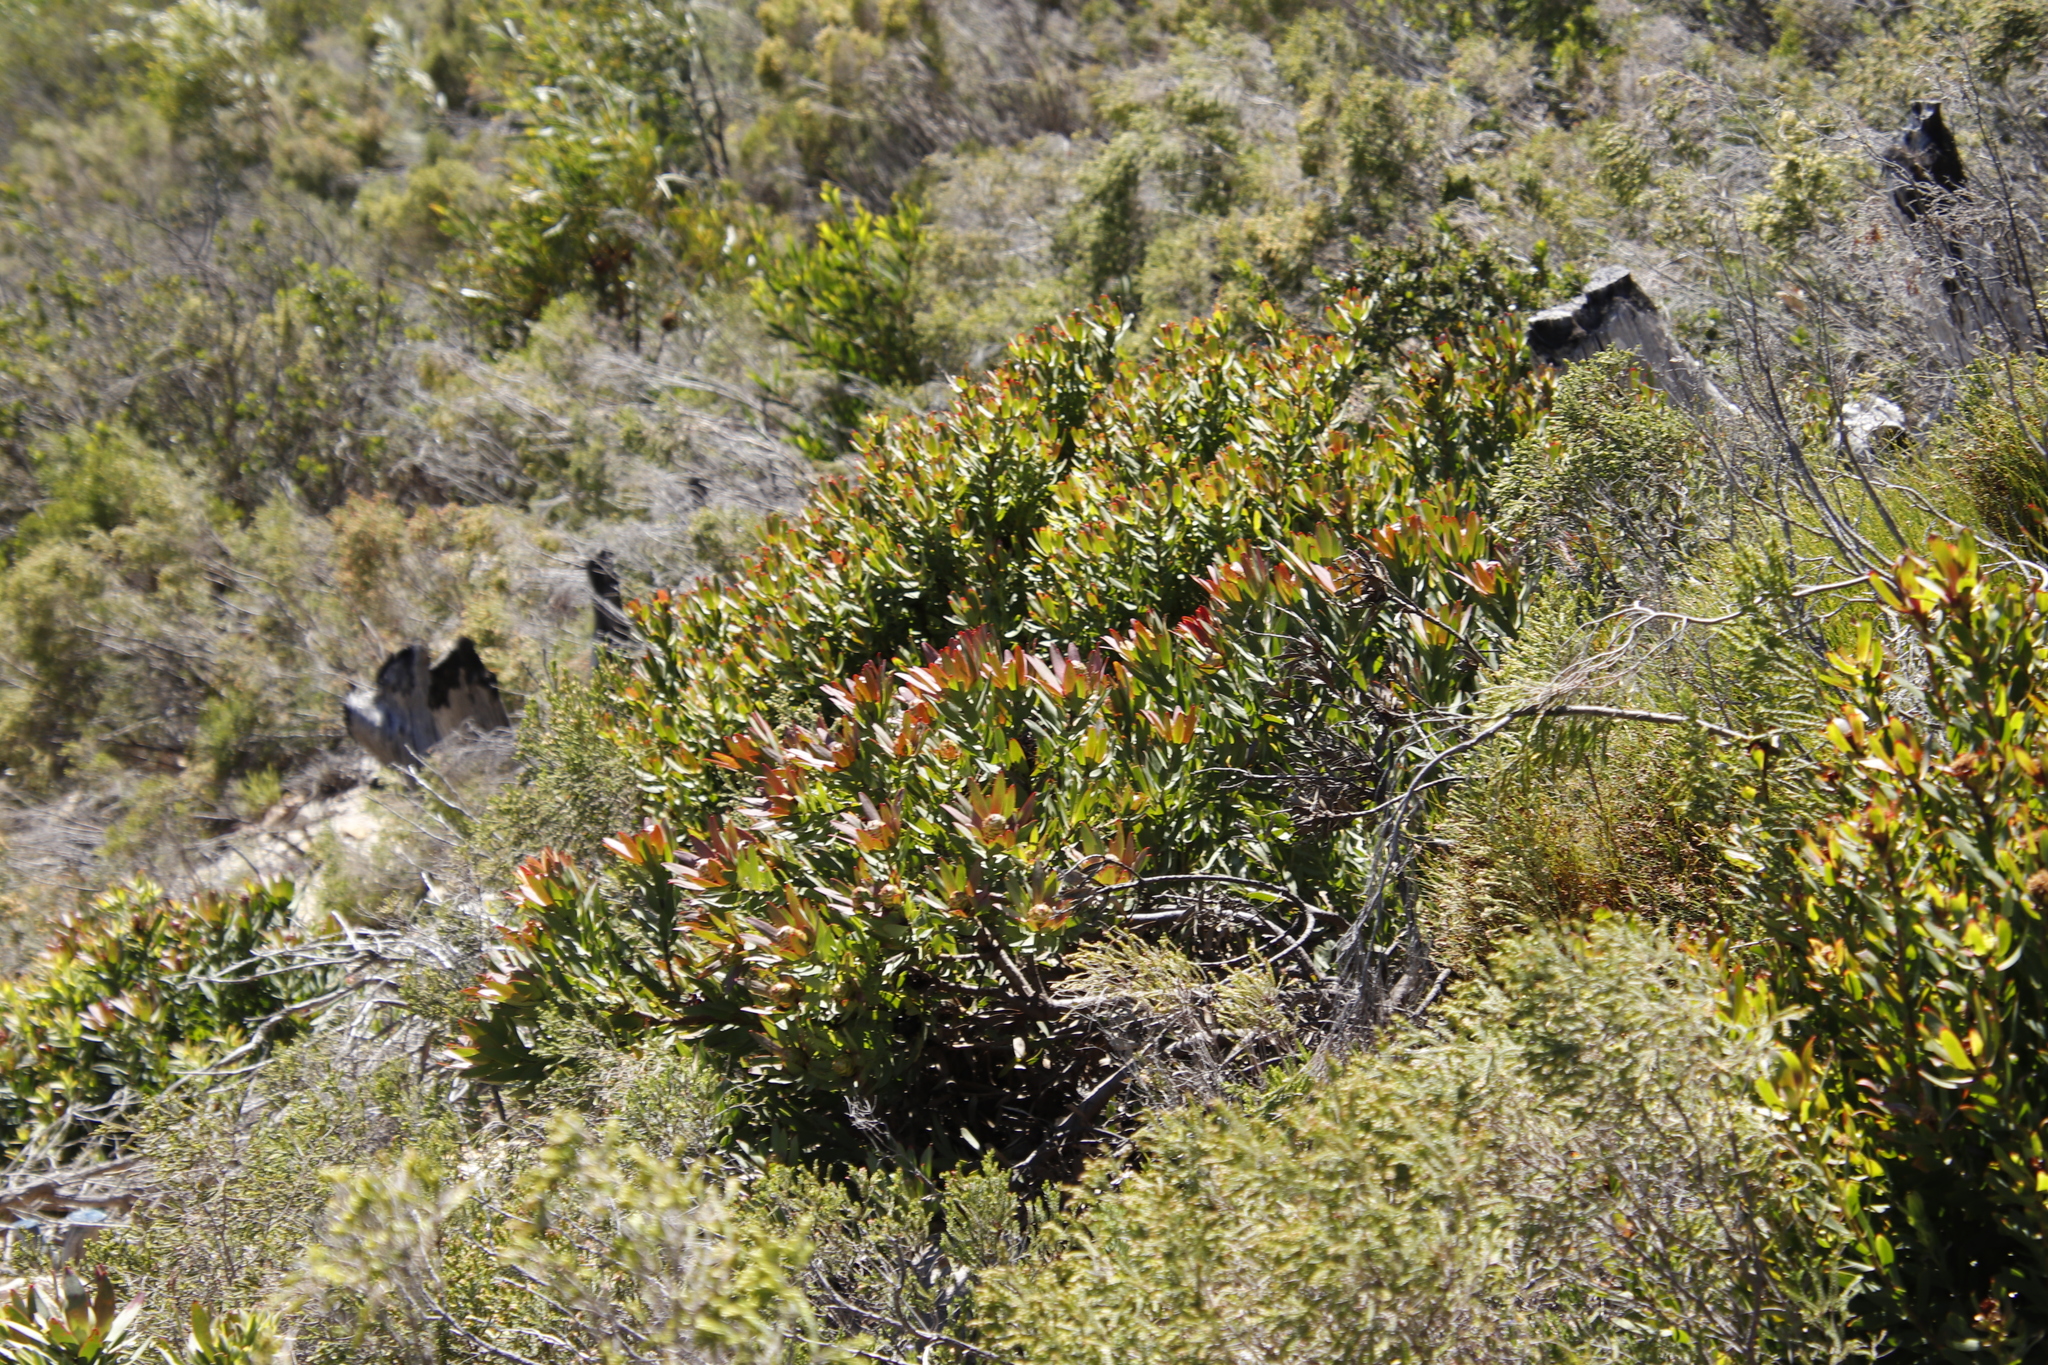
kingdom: Plantae
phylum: Tracheophyta
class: Magnoliopsida
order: Proteales
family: Proteaceae
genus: Leucadendron
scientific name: Leucadendron sessile
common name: Western sunbush
